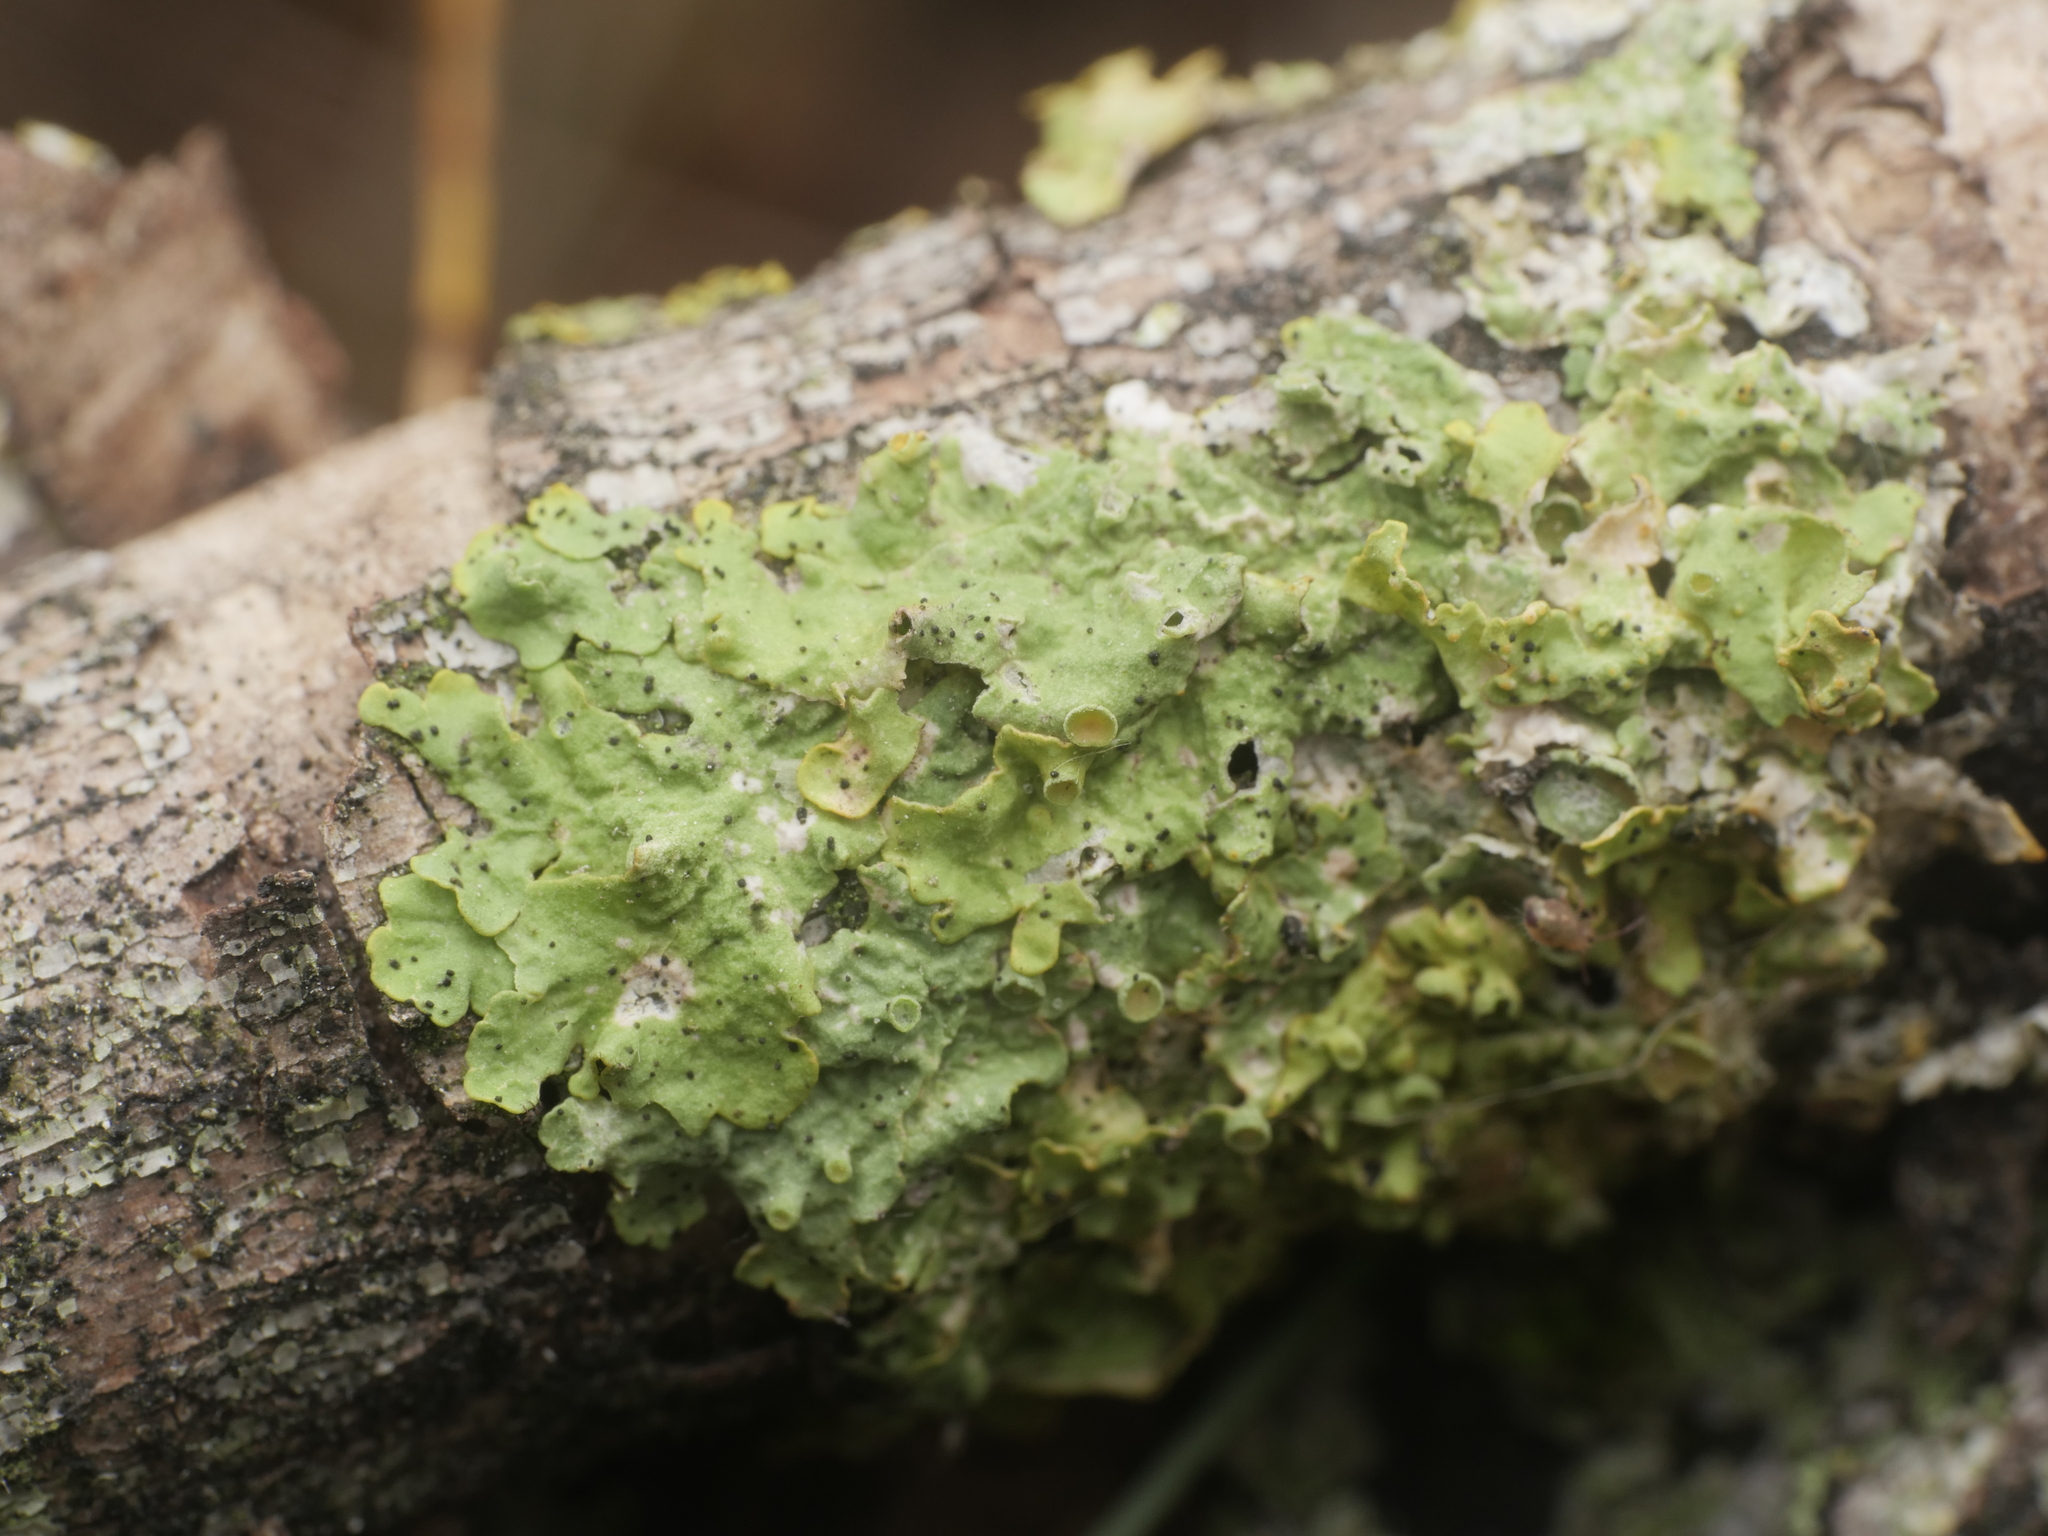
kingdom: Fungi
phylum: Ascomycota
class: Lecanoromycetes
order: Teloschistales
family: Teloschistaceae
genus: Xanthoria
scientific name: Xanthoria parietina
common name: Common orange lichen
